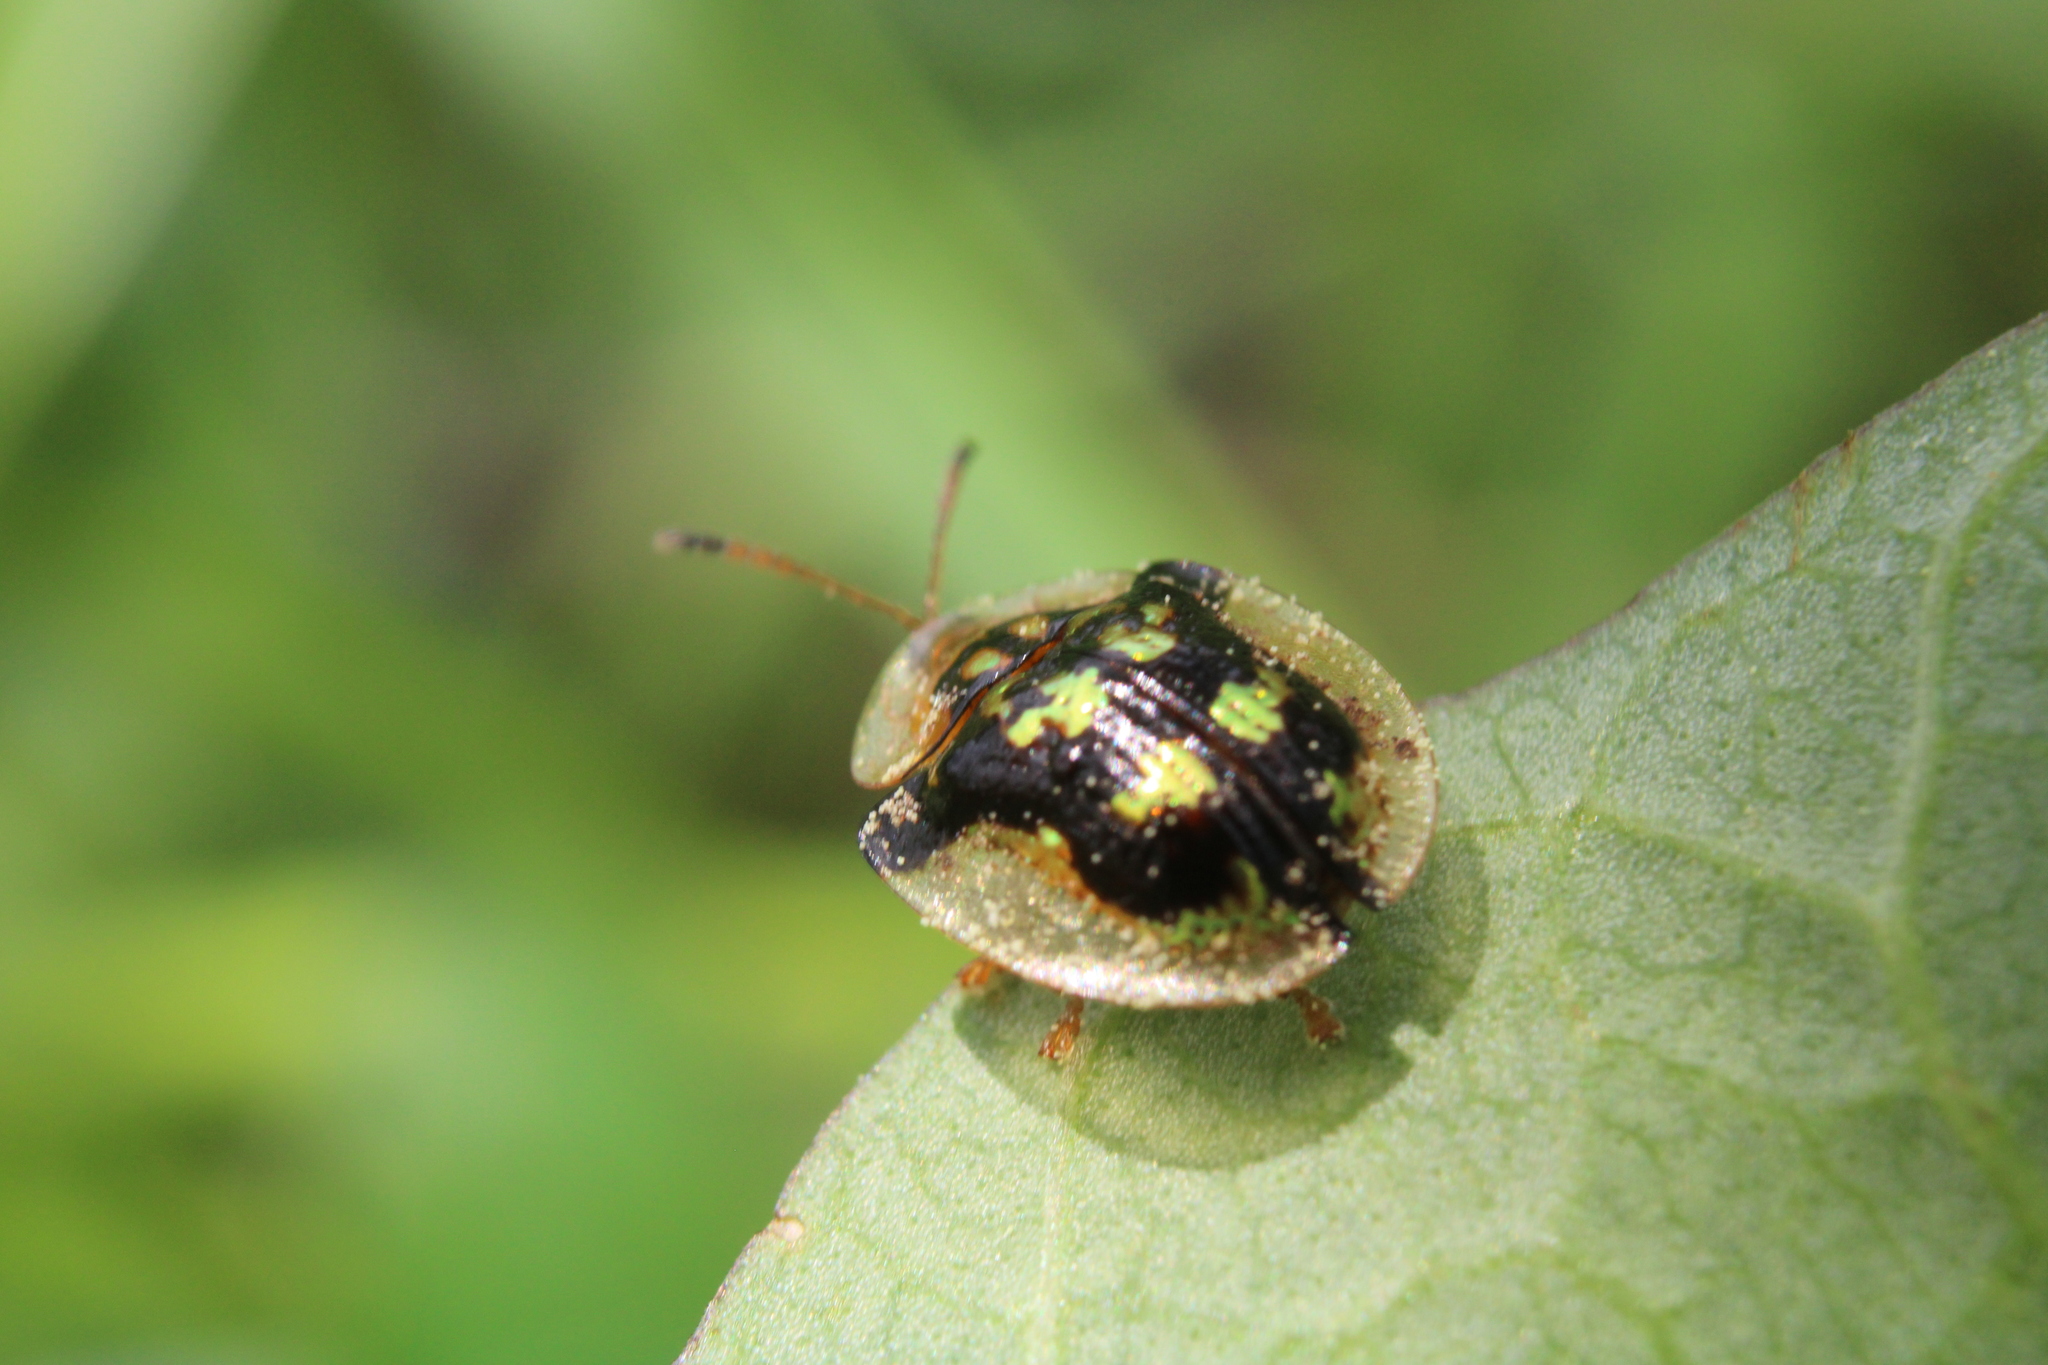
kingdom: Animalia
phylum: Arthropoda
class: Insecta
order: Coleoptera
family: Chrysomelidae
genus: Deloyala
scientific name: Deloyala guttata
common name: Mottled tortoise beetle
